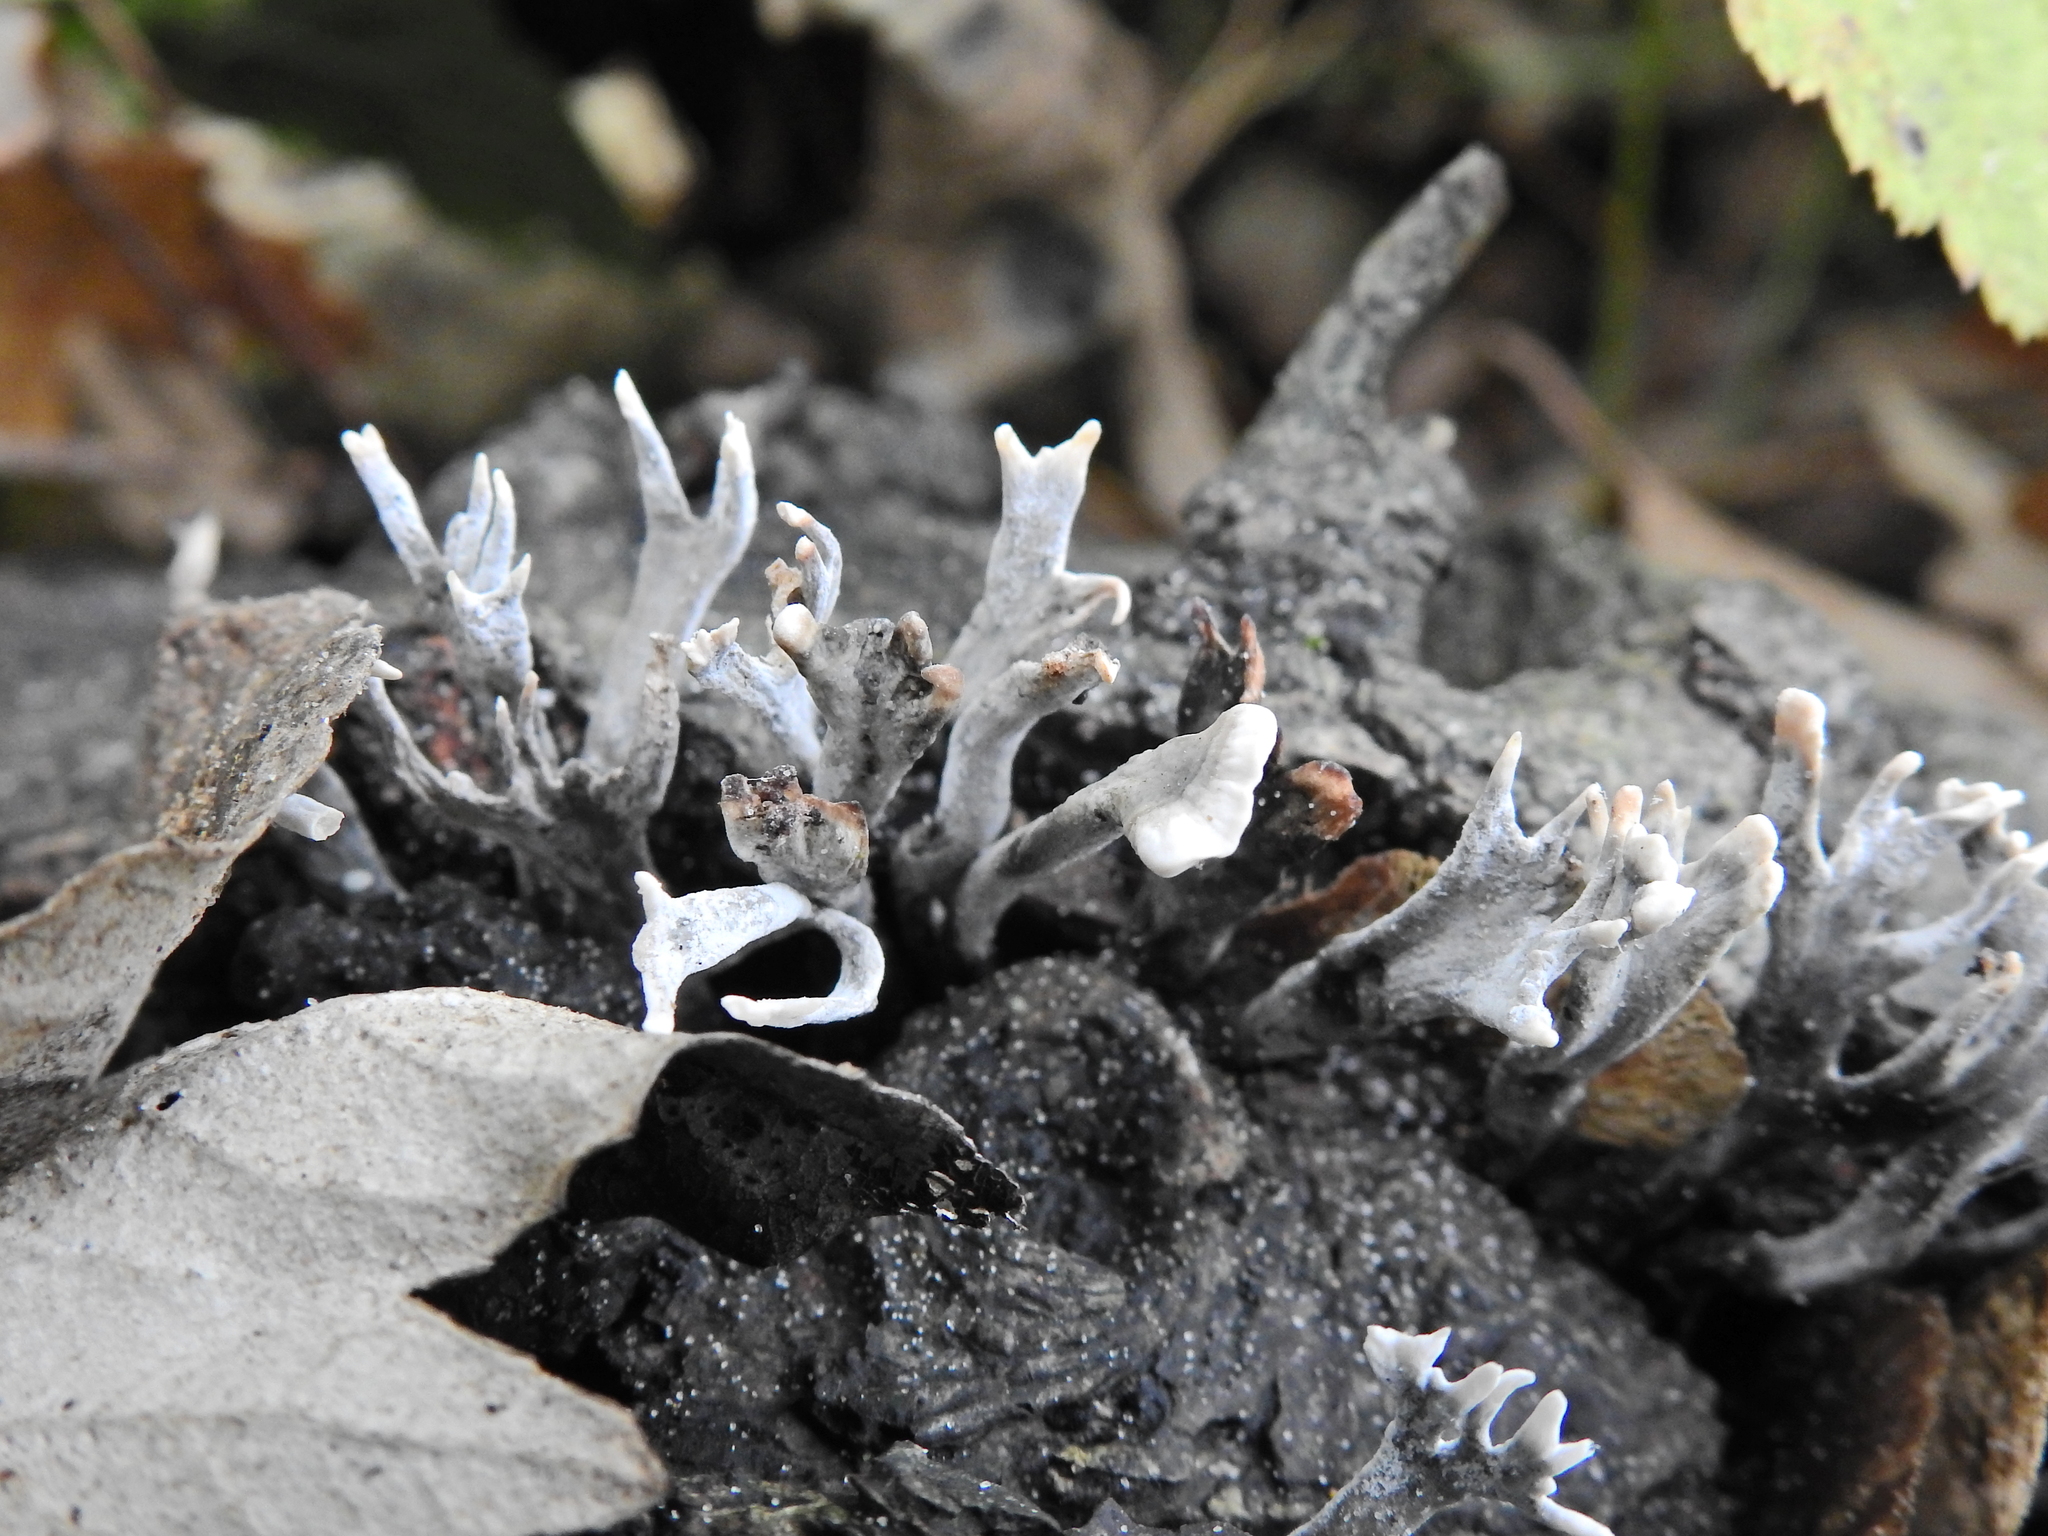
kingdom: Fungi
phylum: Ascomycota
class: Sordariomycetes
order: Xylariales
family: Xylariaceae
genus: Xylaria
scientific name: Xylaria hypoxylon
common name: Candle-snuff fungus
